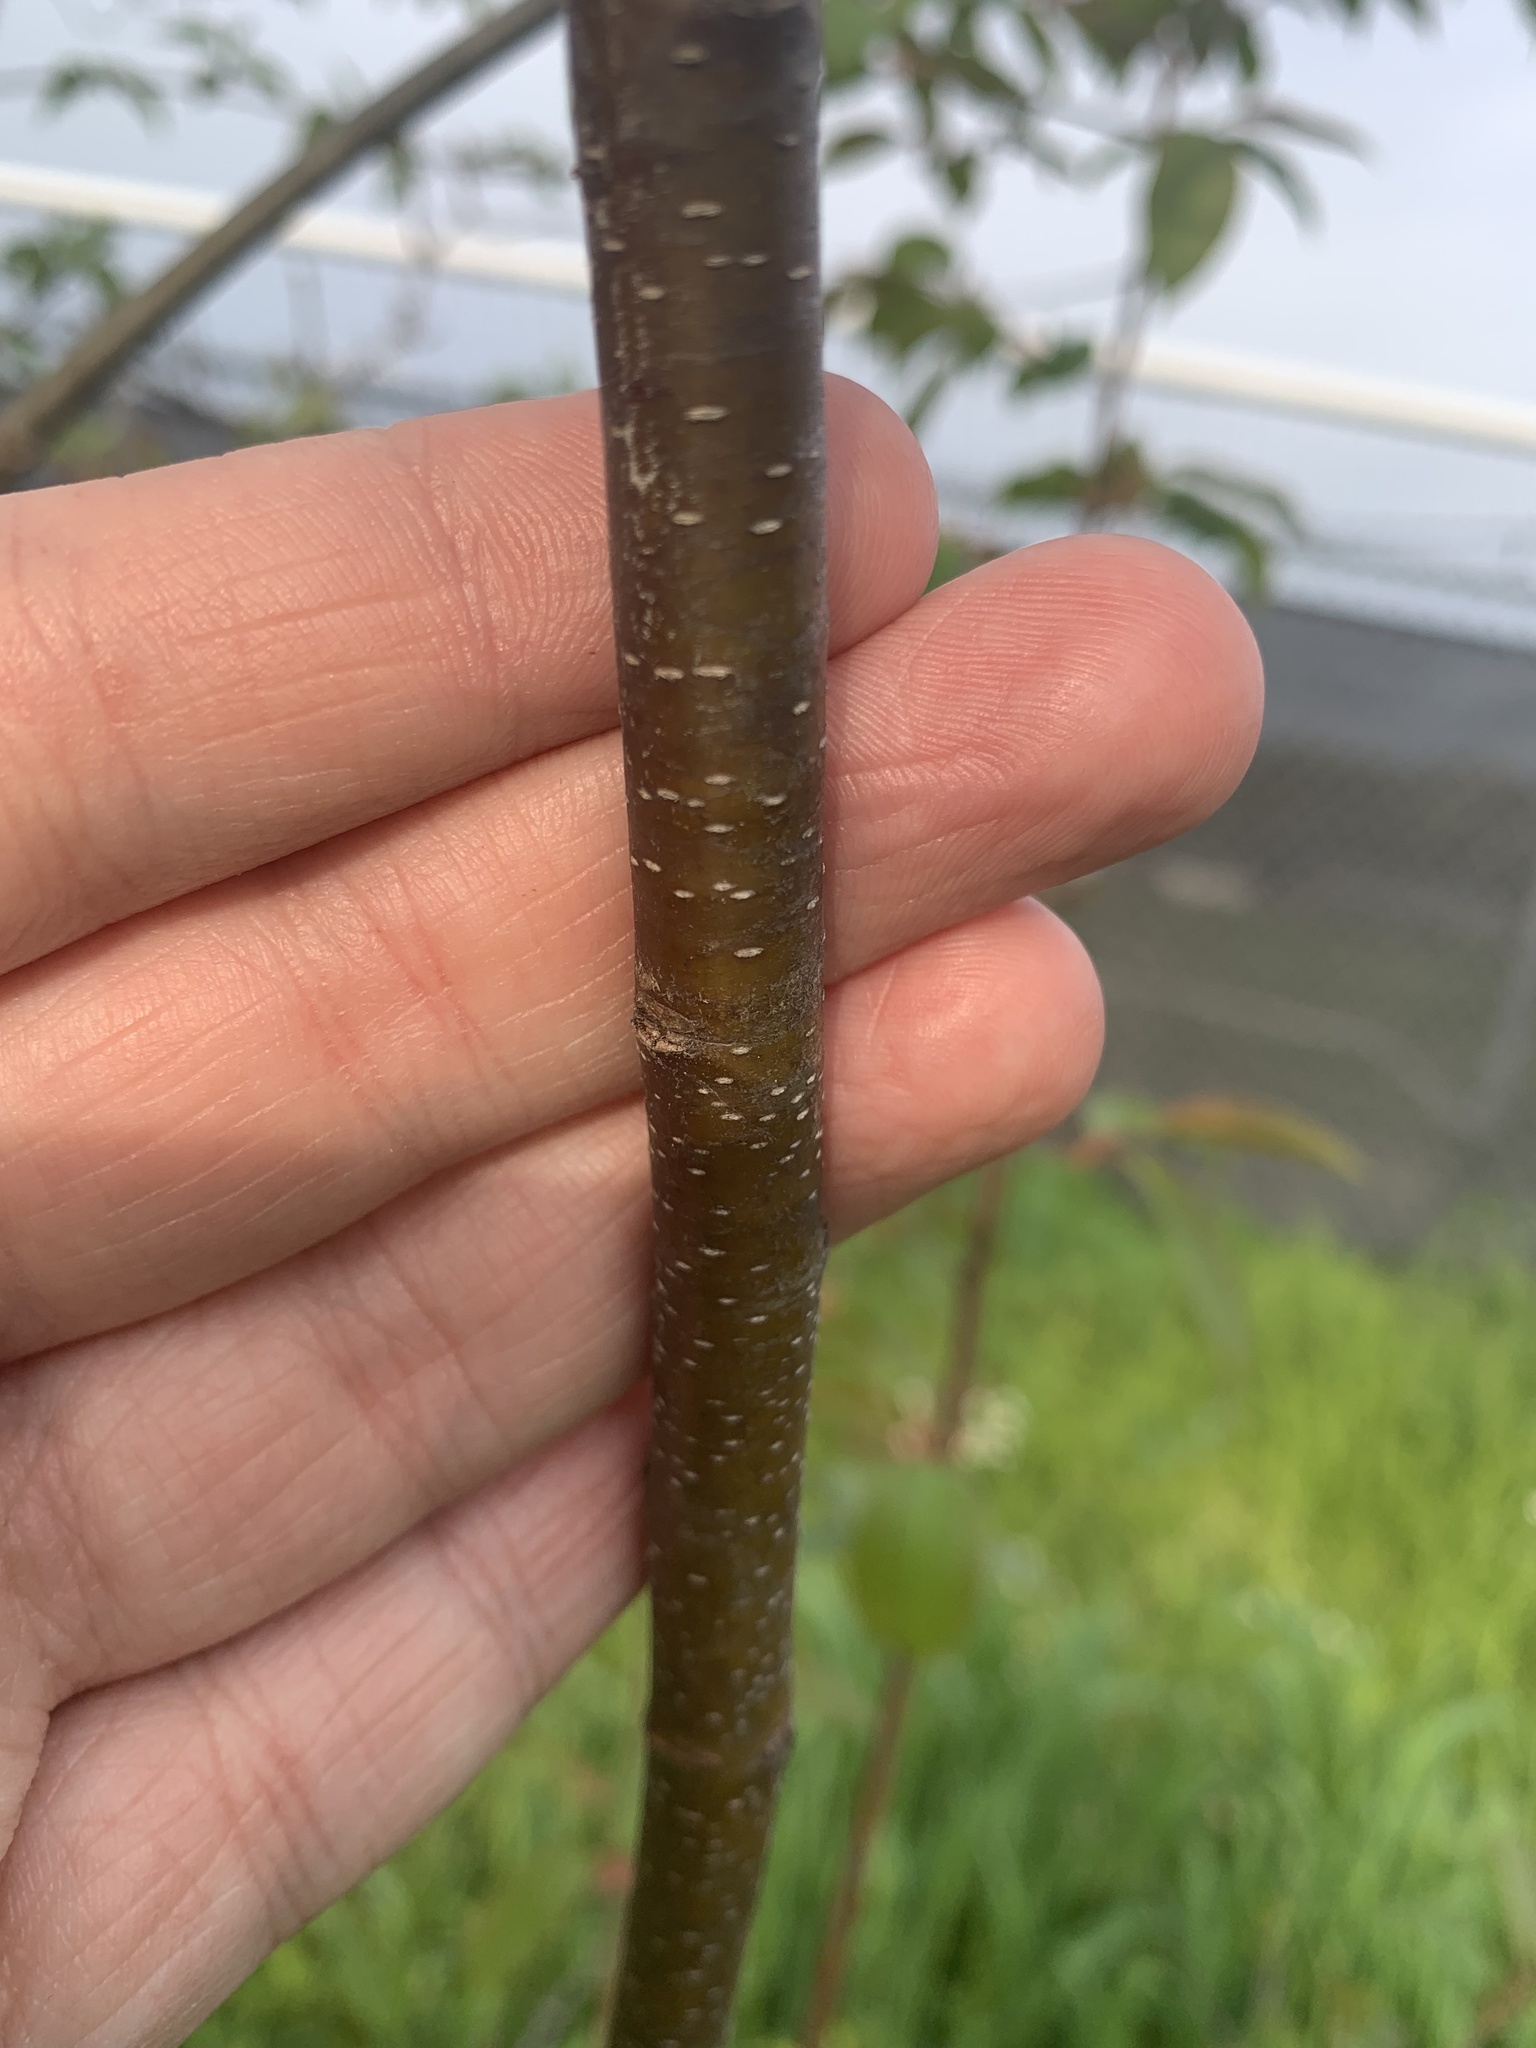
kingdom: Plantae
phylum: Tracheophyta
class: Magnoliopsida
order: Rosales
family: Rosaceae
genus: Prunus
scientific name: Prunus serotina
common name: Black cherry
